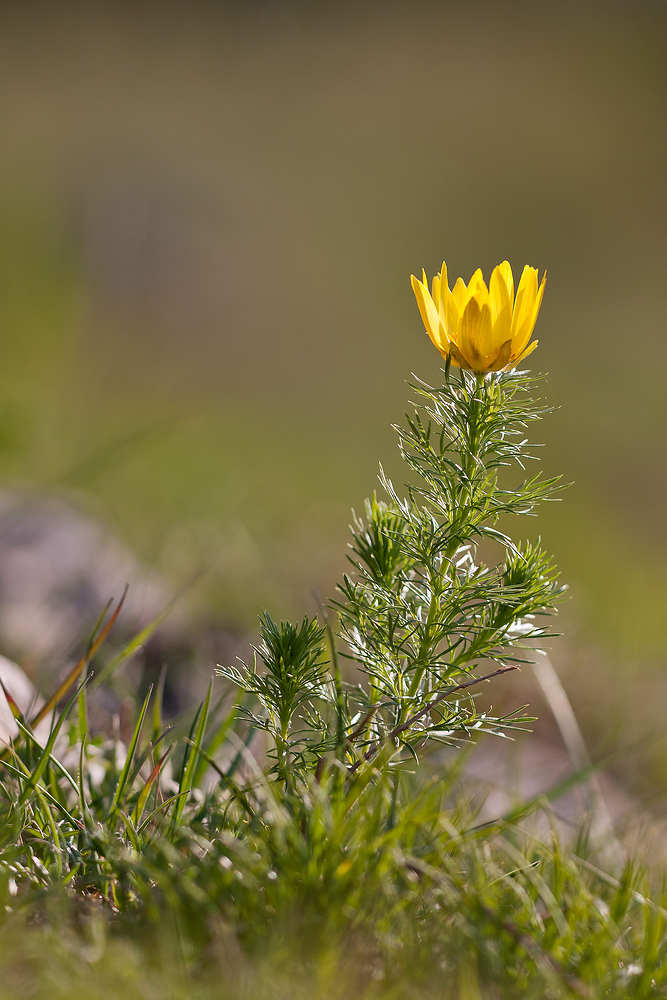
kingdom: Plantae
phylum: Tracheophyta
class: Magnoliopsida
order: Ranunculales
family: Ranunculaceae
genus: Adonis
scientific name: Adonis vernalis
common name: Yellow pheasants-eye
